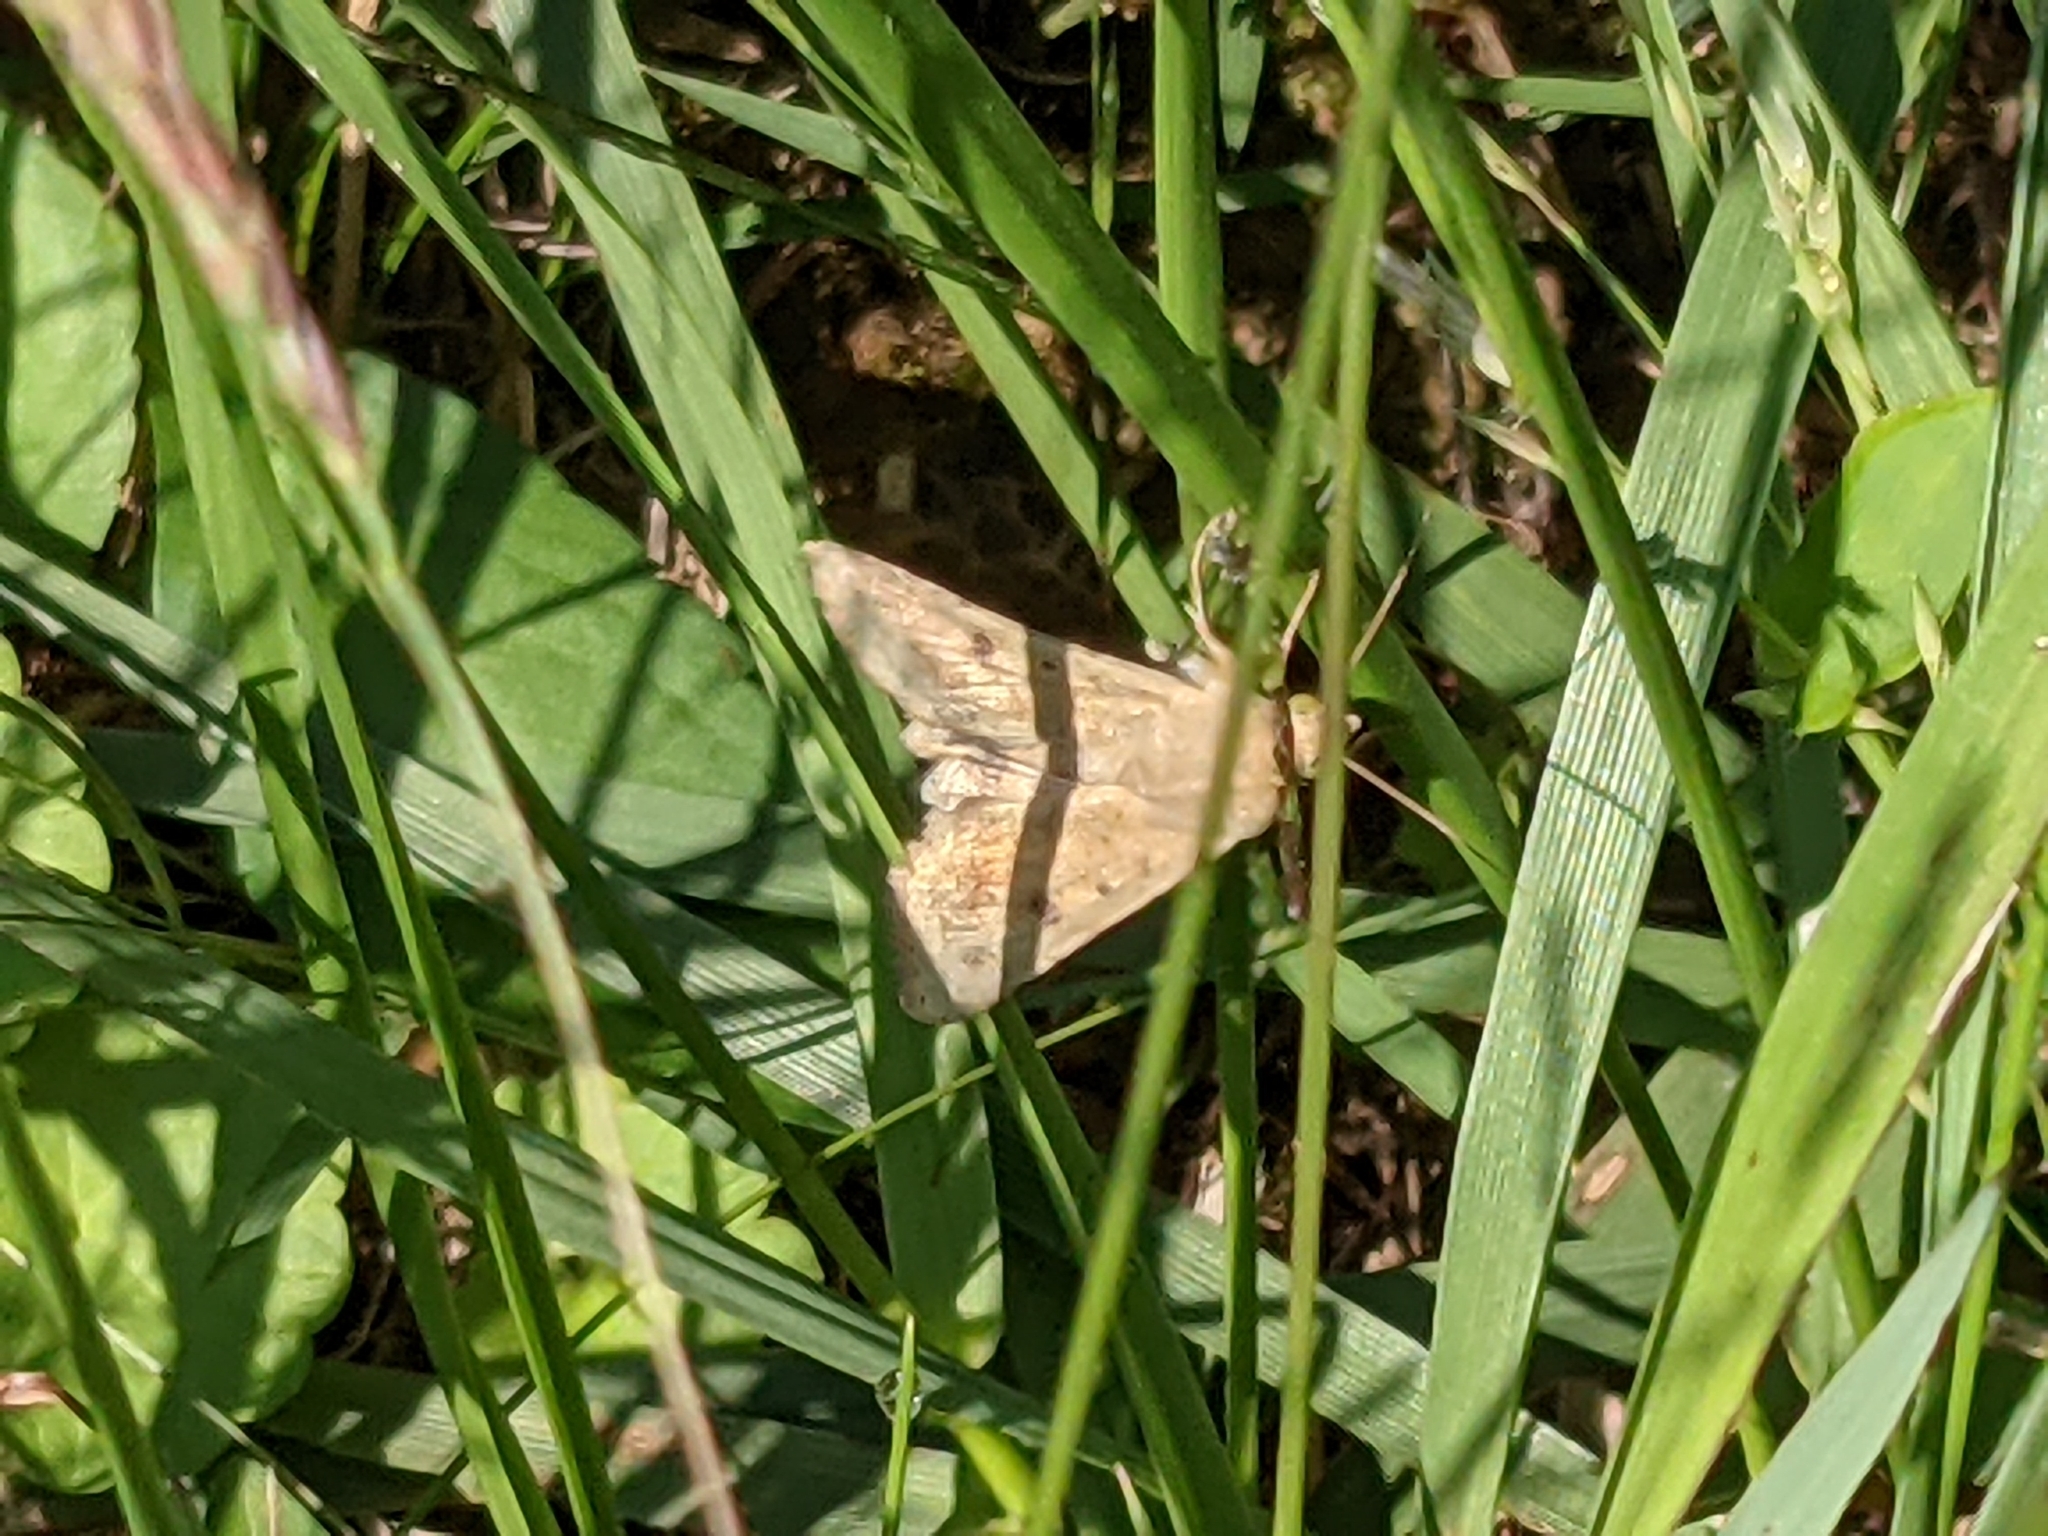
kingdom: Animalia
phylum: Arthropoda
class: Insecta
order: Lepidoptera
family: Noctuidae
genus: Helicoverpa
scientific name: Helicoverpa zea
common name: Bollworm
